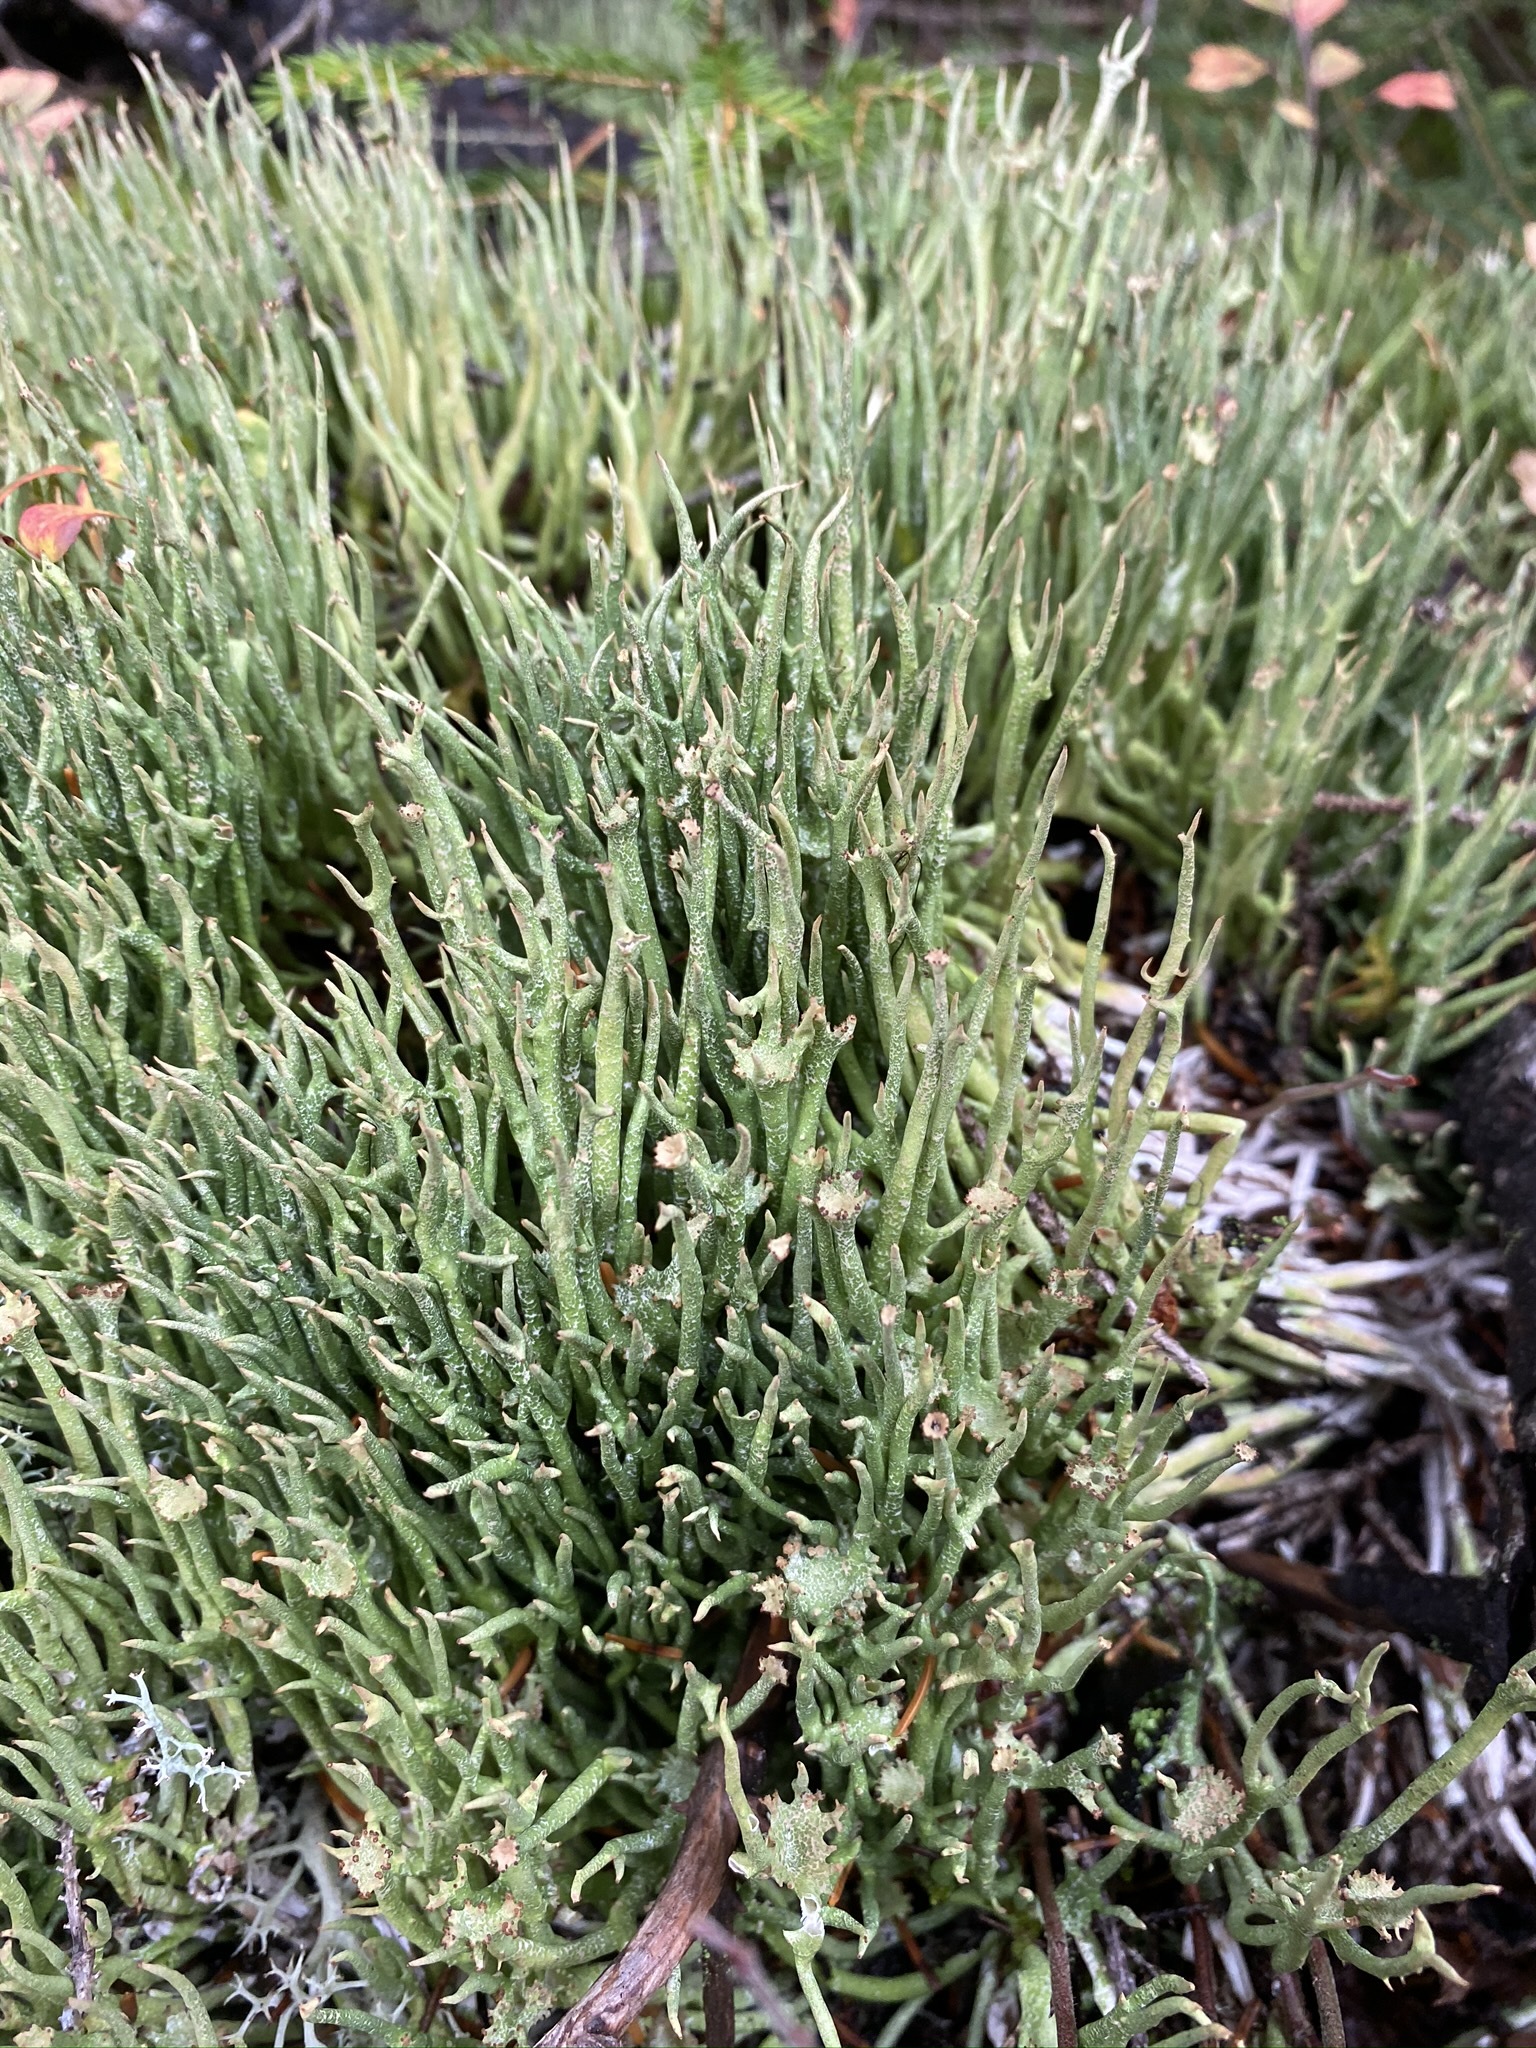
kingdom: Fungi
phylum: Ascomycota
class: Lecanoromycetes
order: Lecanorales
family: Cladoniaceae
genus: Cladonia
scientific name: Cladonia gracilis
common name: Smooth clad lichen
